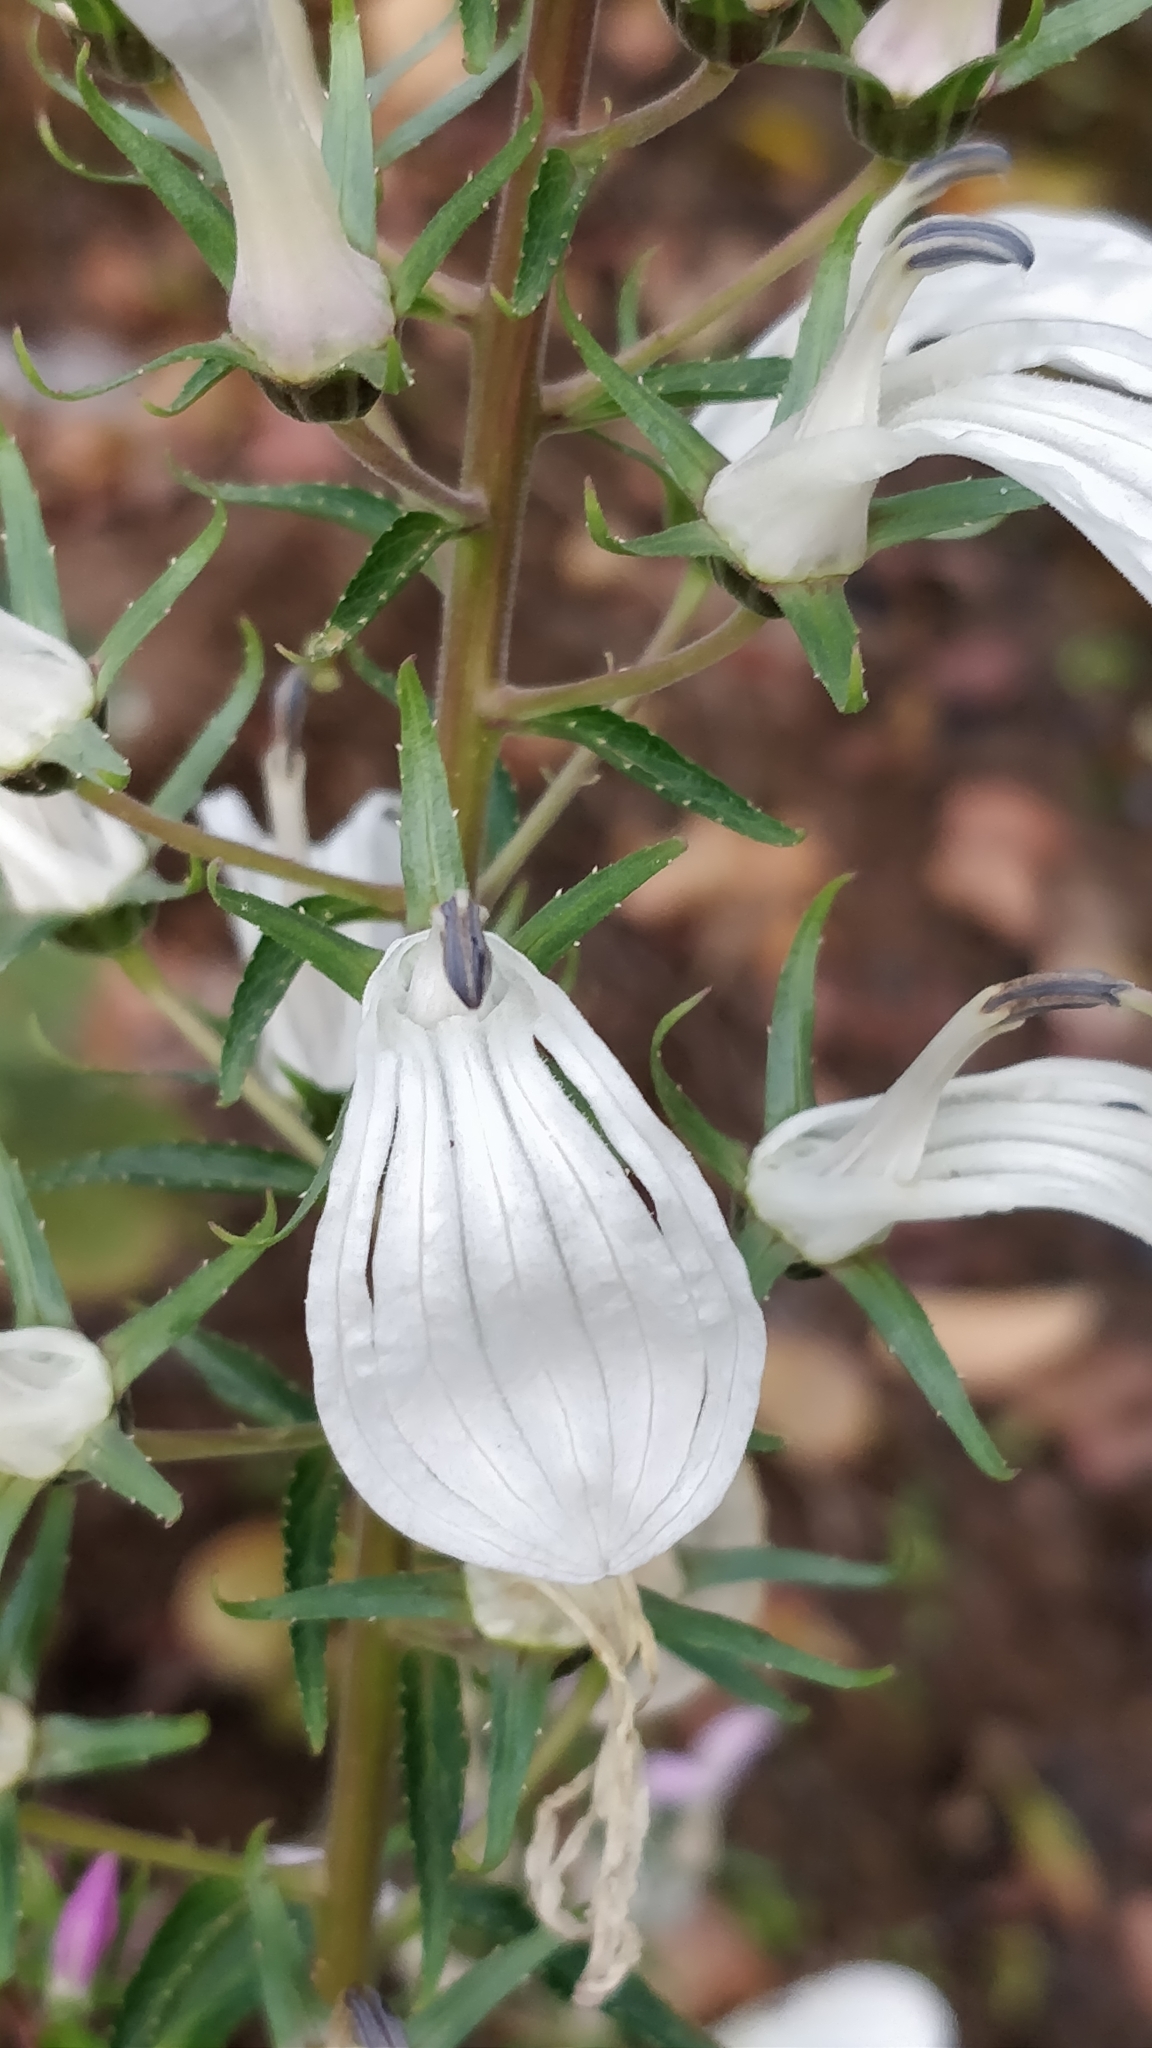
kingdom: Plantae
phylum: Tracheophyta
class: Magnoliopsida
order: Asterales
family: Campanulaceae
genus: Lobelia
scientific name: Lobelia nicotianifolia
